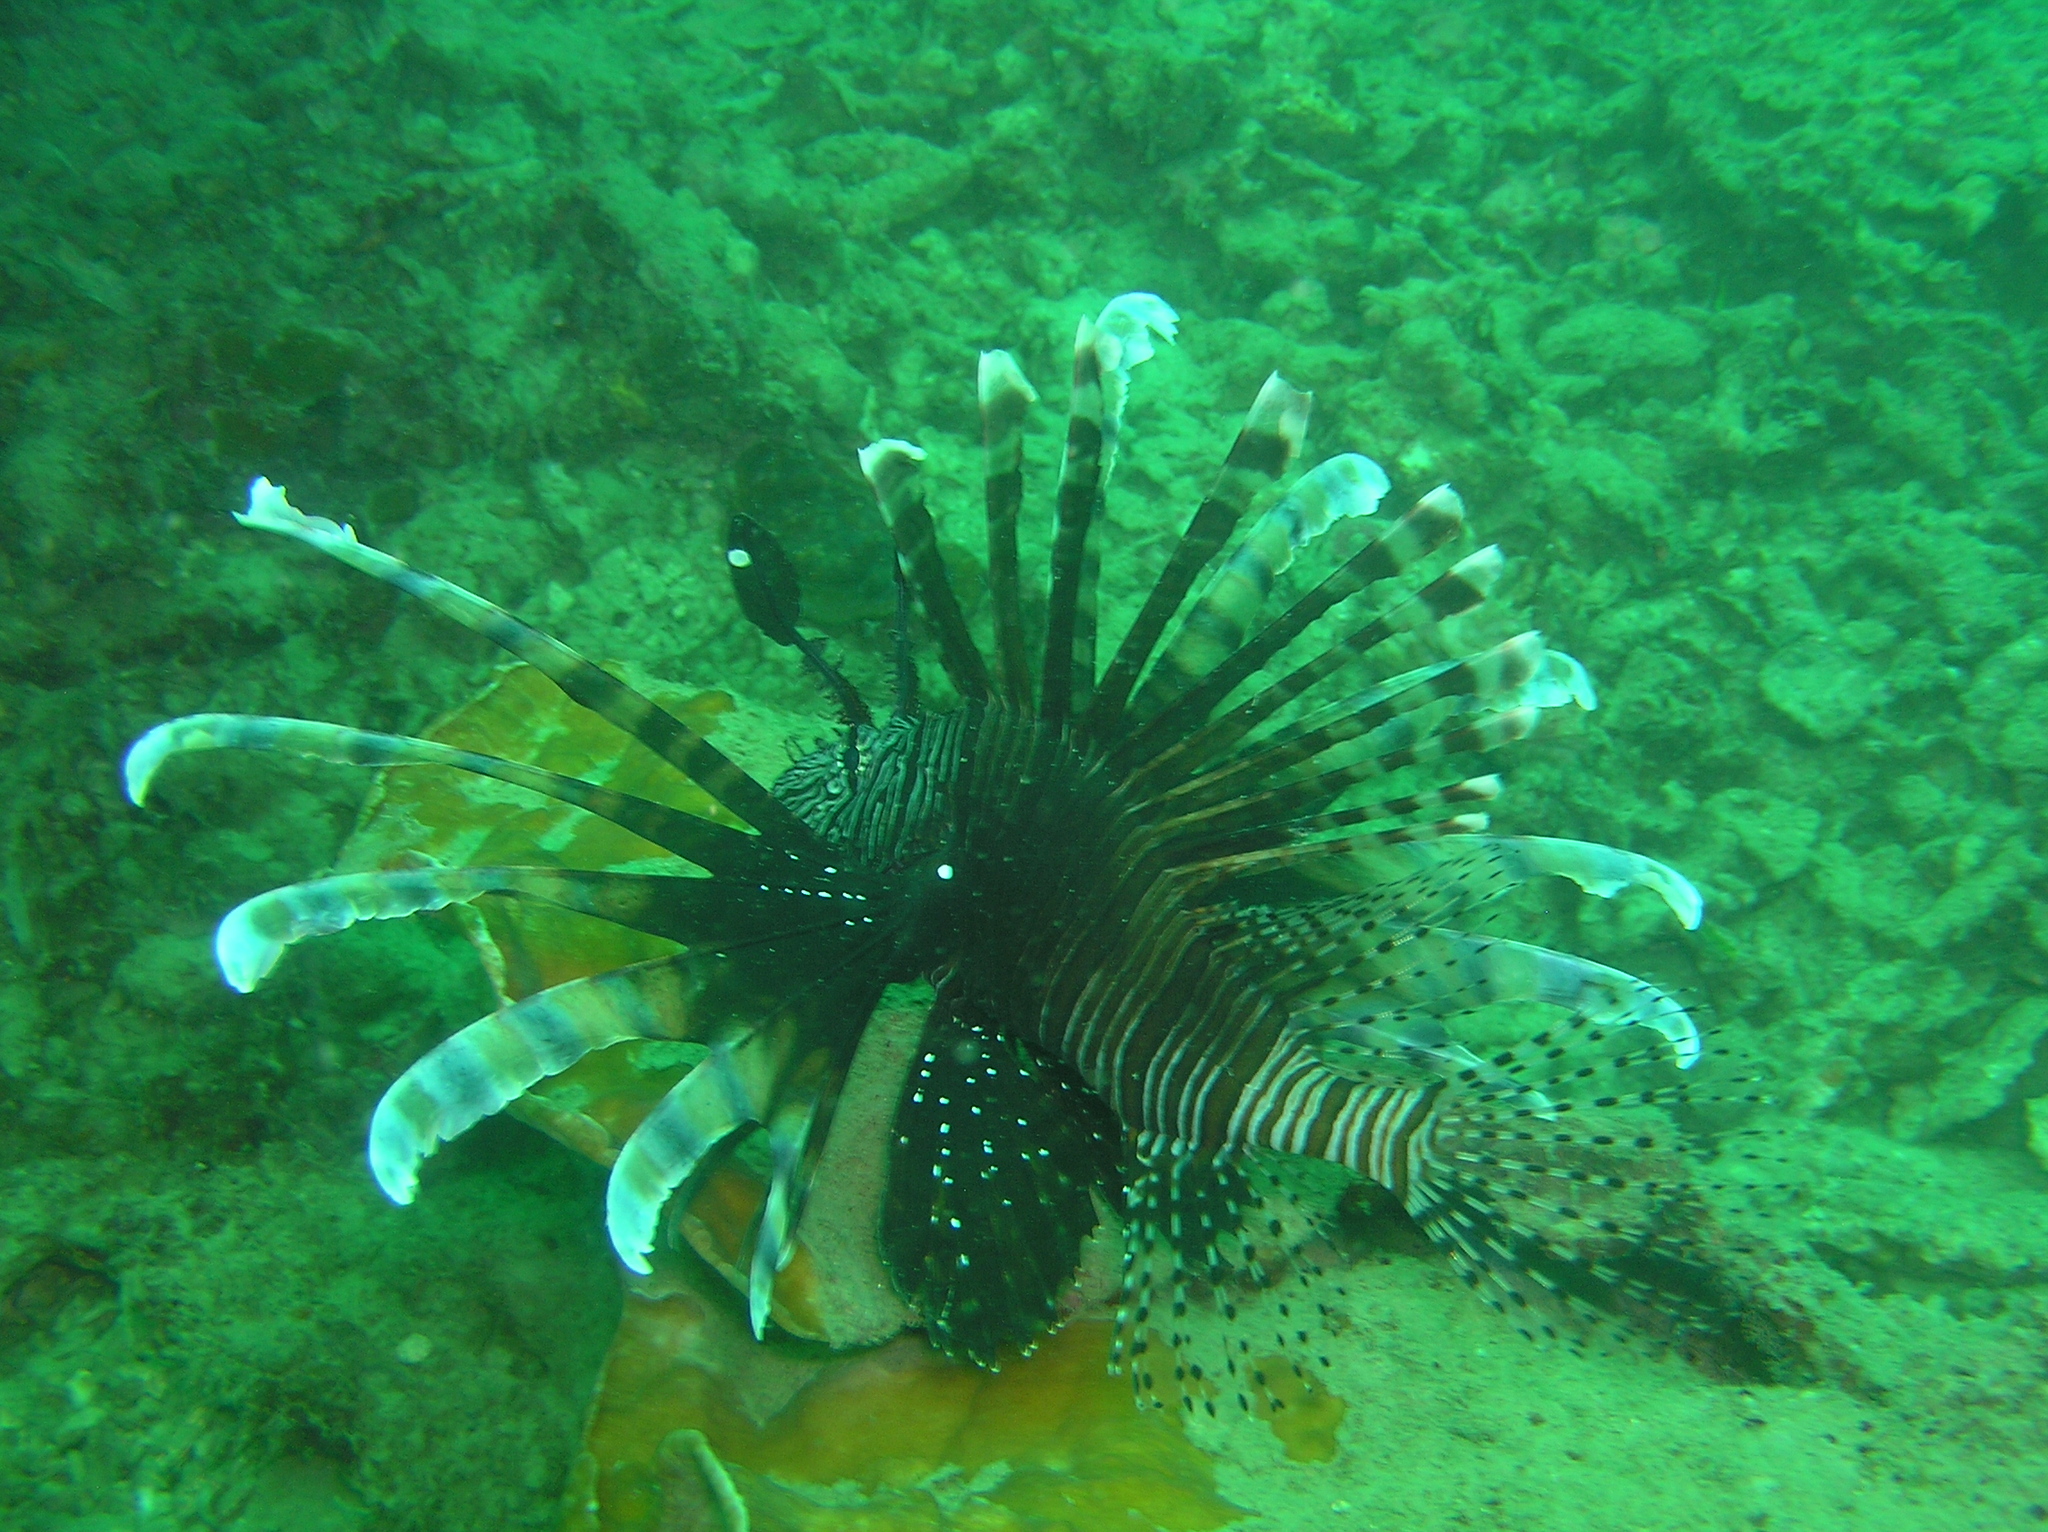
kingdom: Animalia
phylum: Chordata
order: Scorpaeniformes
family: Scorpaenidae
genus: Pterois
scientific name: Pterois volitans
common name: Lionfish
